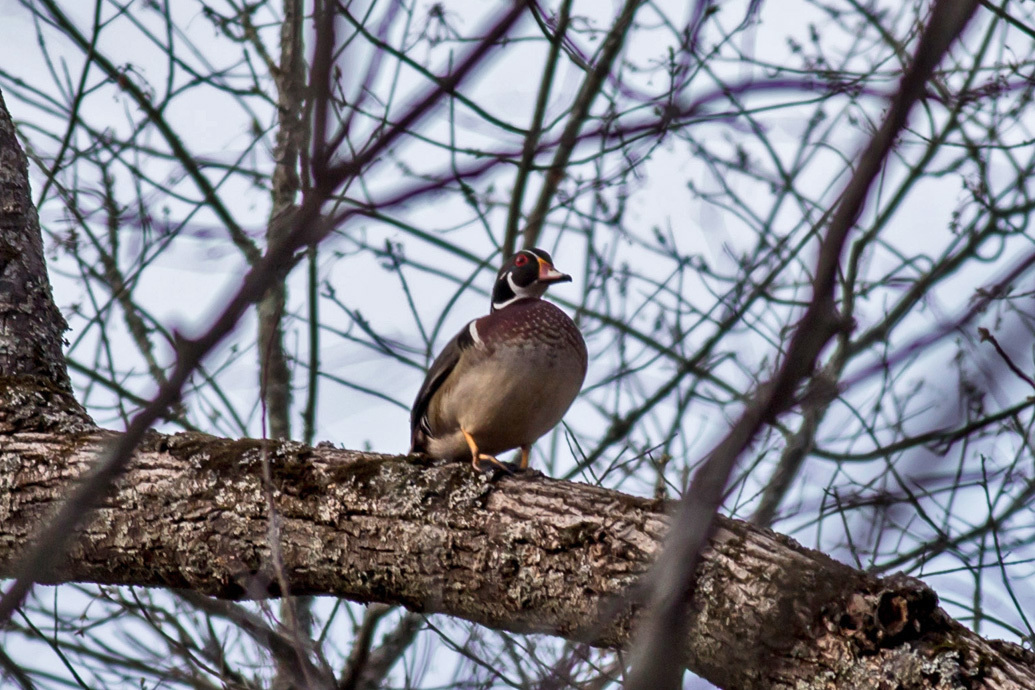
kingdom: Animalia
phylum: Chordata
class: Aves
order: Anseriformes
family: Anatidae
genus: Aix
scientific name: Aix sponsa
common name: Wood duck
